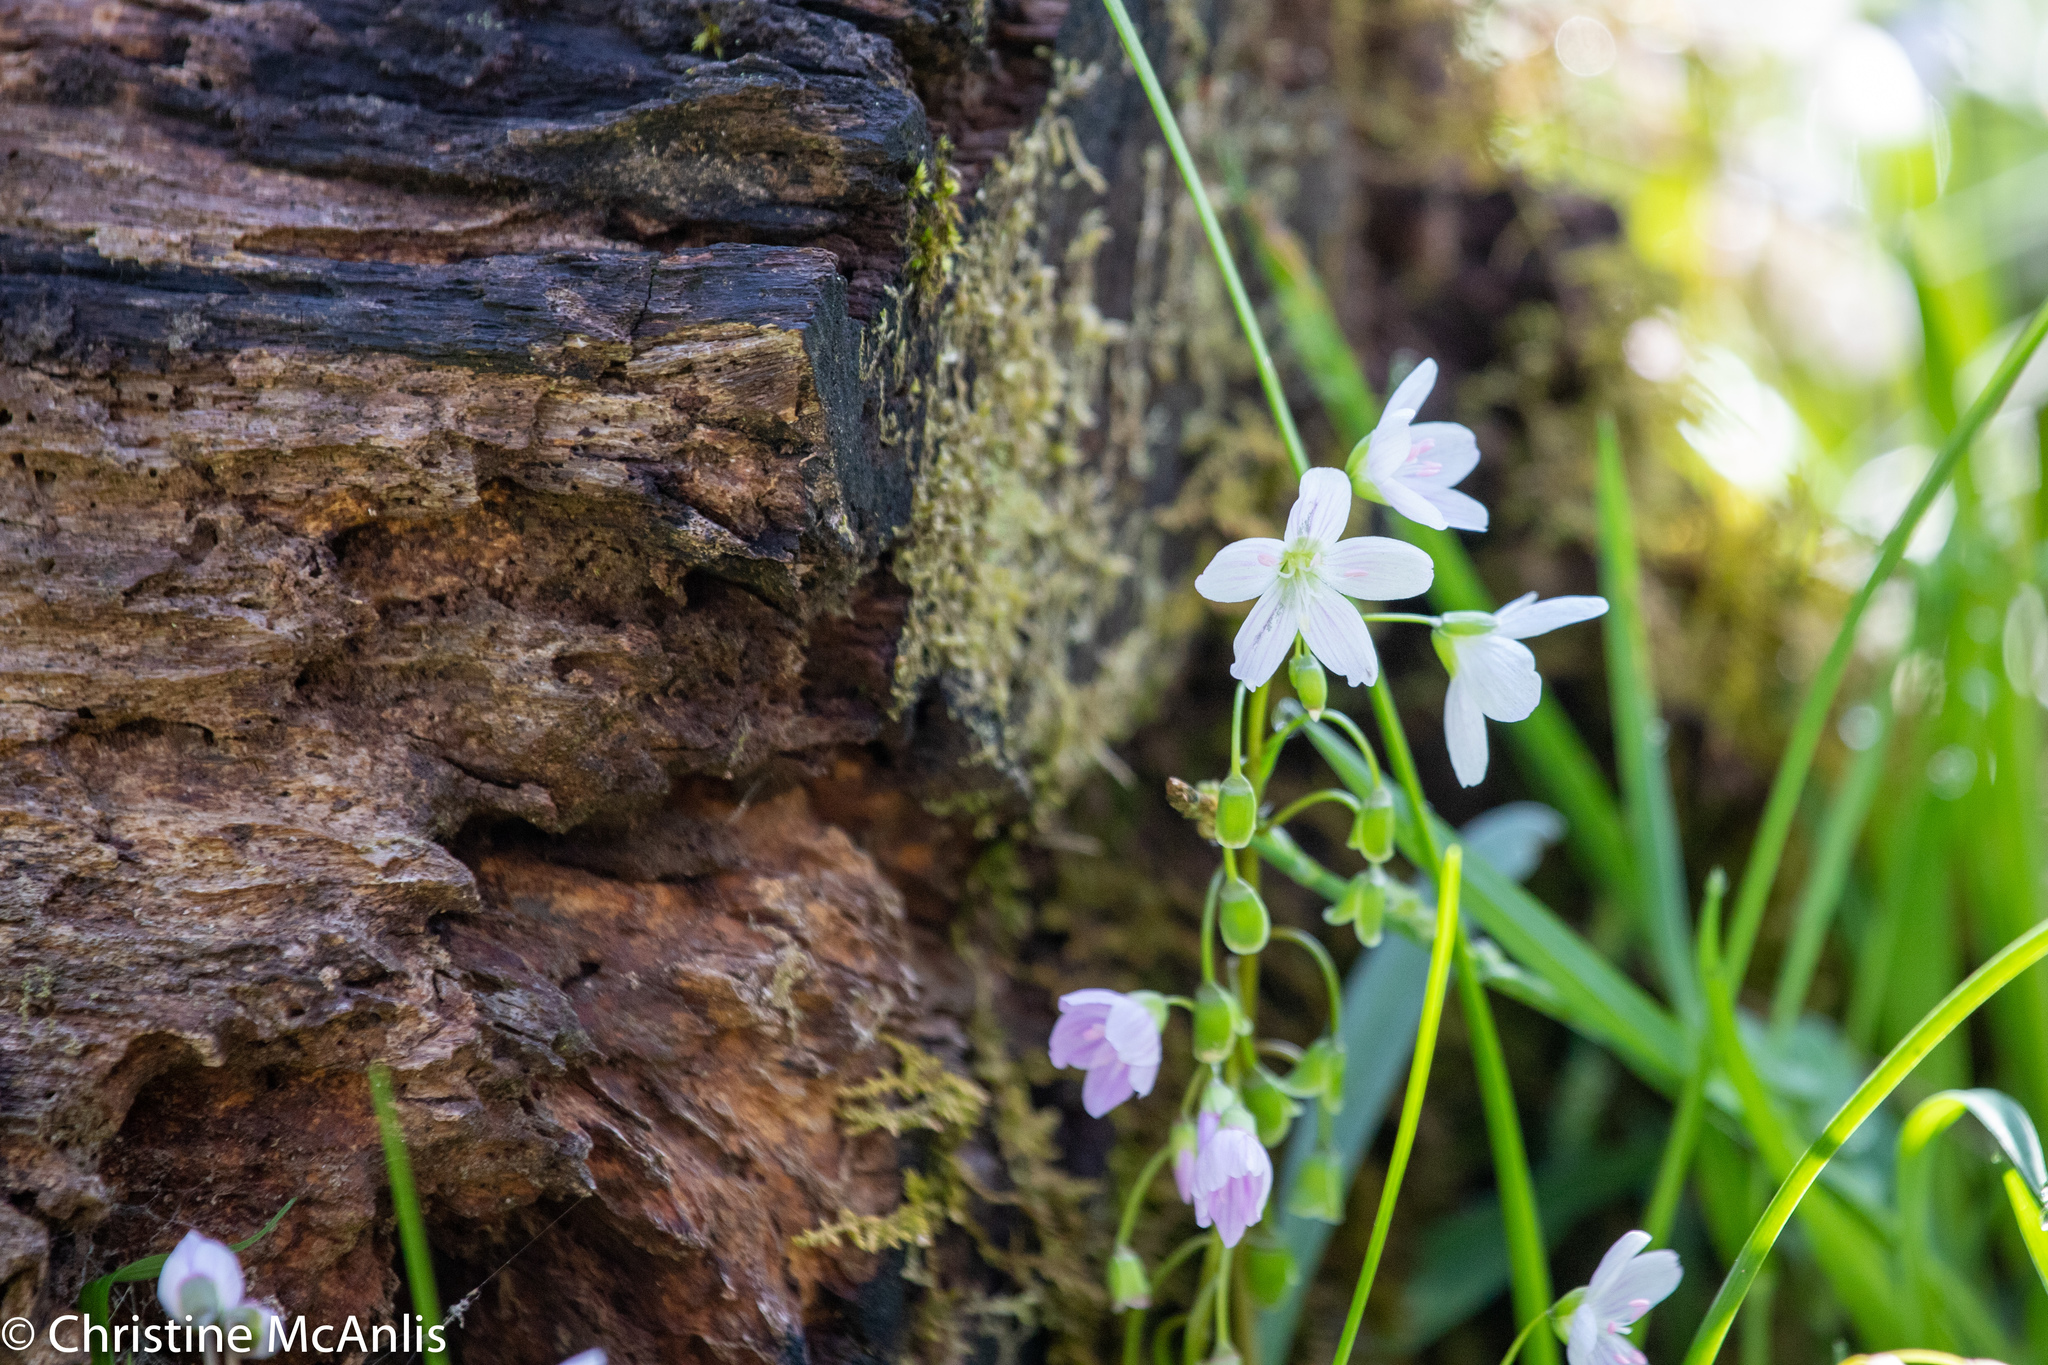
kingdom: Plantae
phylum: Tracheophyta
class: Magnoliopsida
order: Caryophyllales
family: Montiaceae
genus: Claytonia
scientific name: Claytonia virginica
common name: Virginia springbeauty
